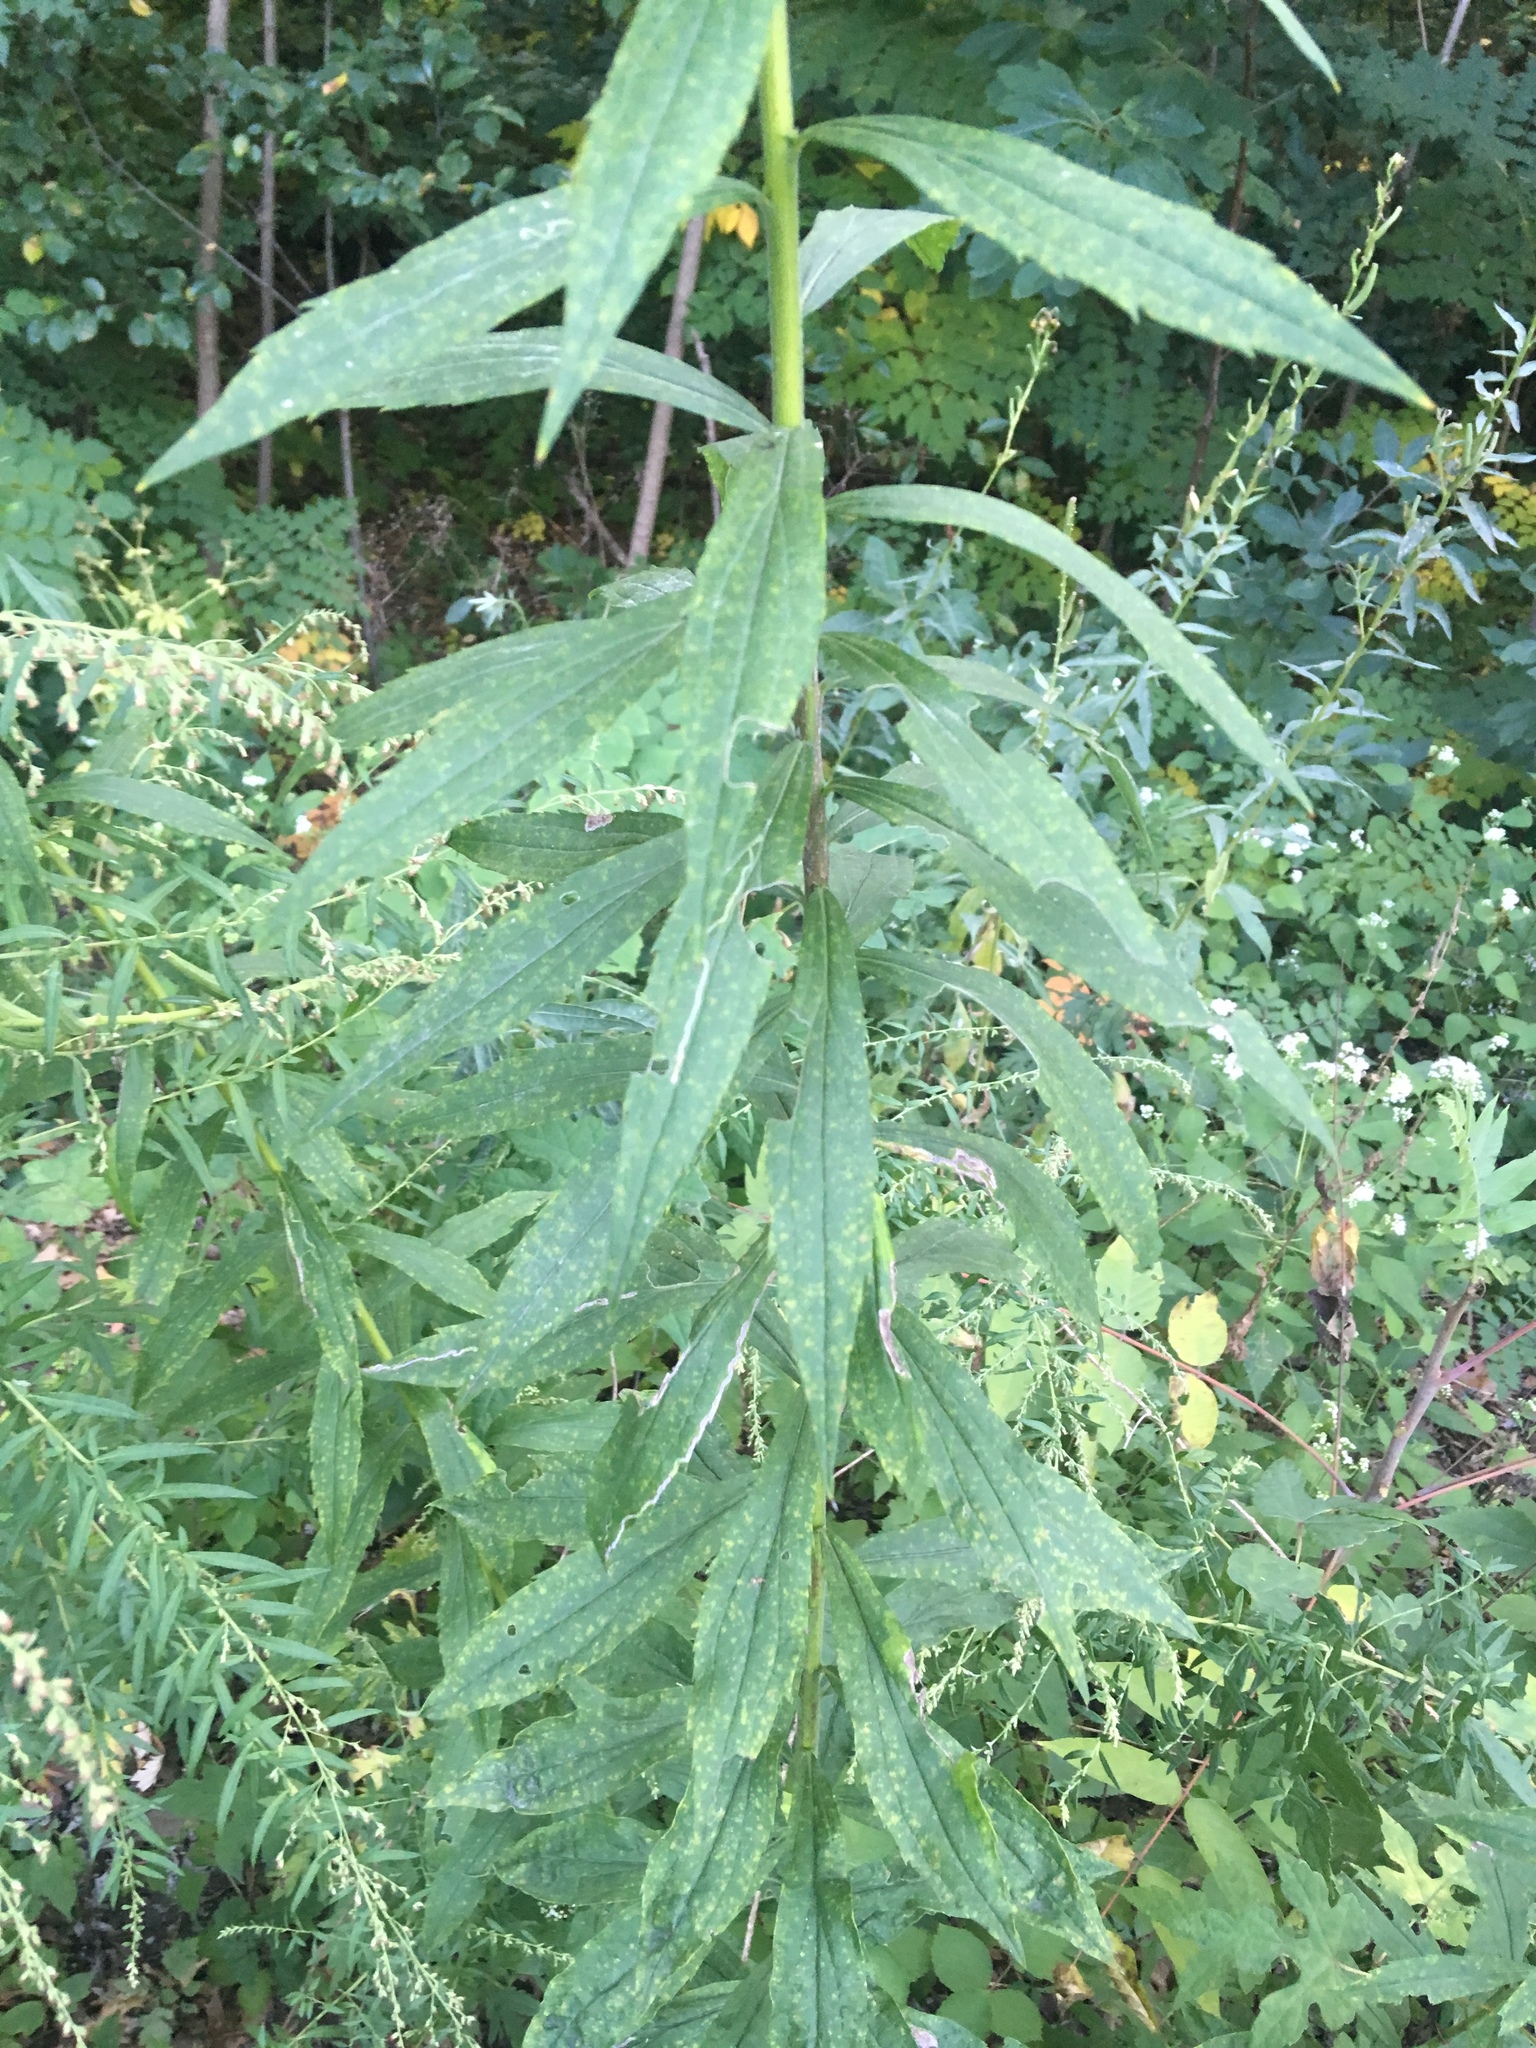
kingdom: Plantae
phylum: Tracheophyta
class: Magnoliopsida
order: Asterales
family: Asteraceae
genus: Solidago
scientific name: Solidago altissima
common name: Late goldenrod
